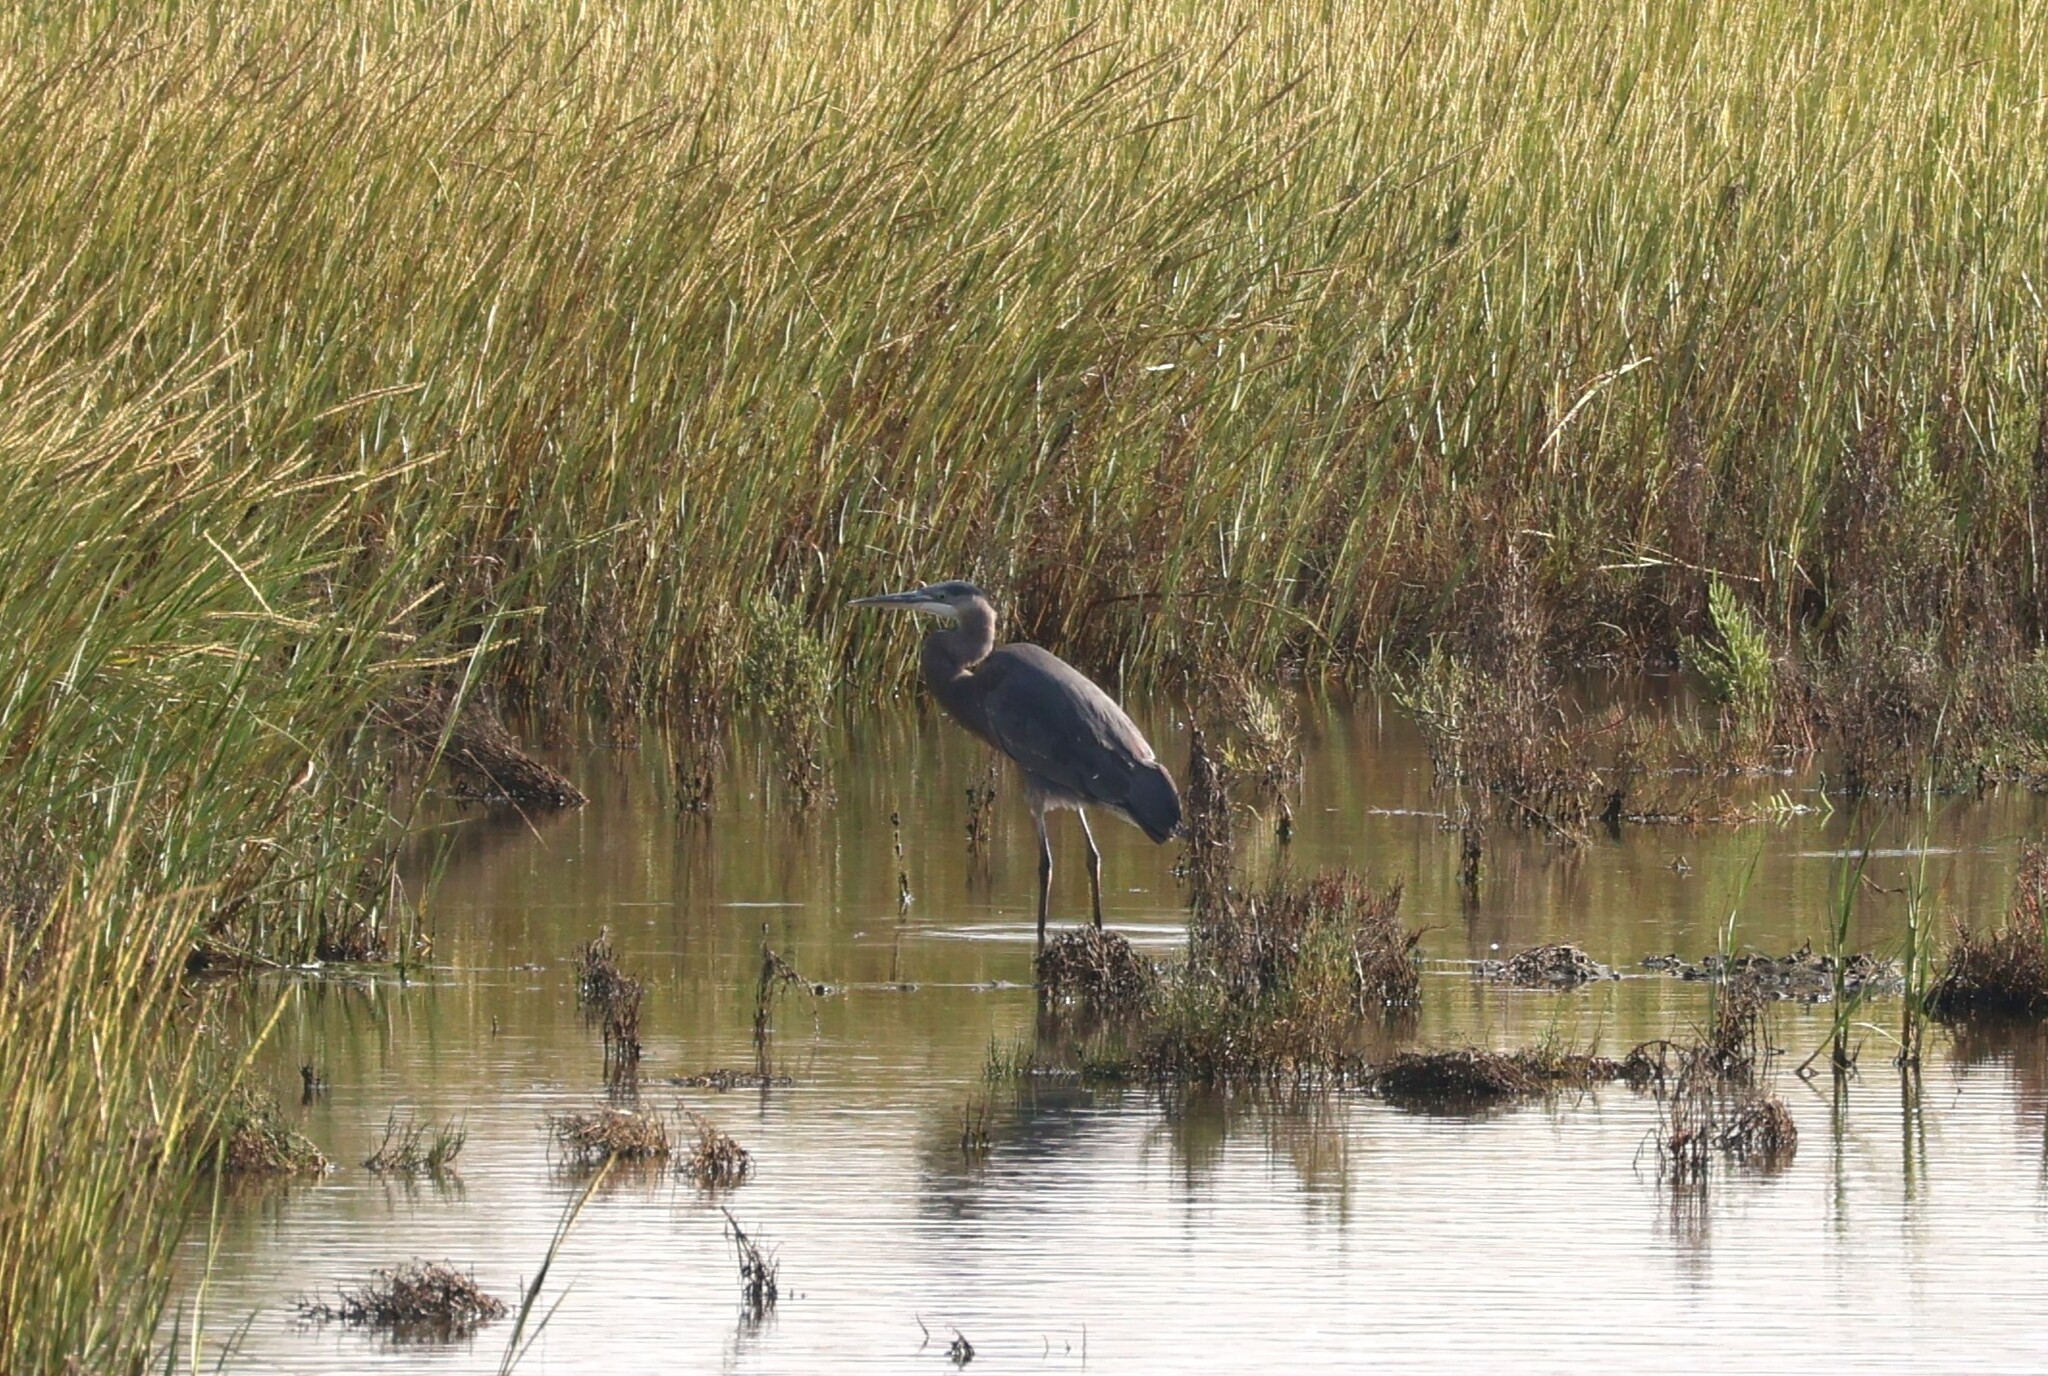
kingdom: Animalia
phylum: Chordata
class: Aves
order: Pelecaniformes
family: Ardeidae
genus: Ardea
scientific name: Ardea herodias
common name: Great blue heron
